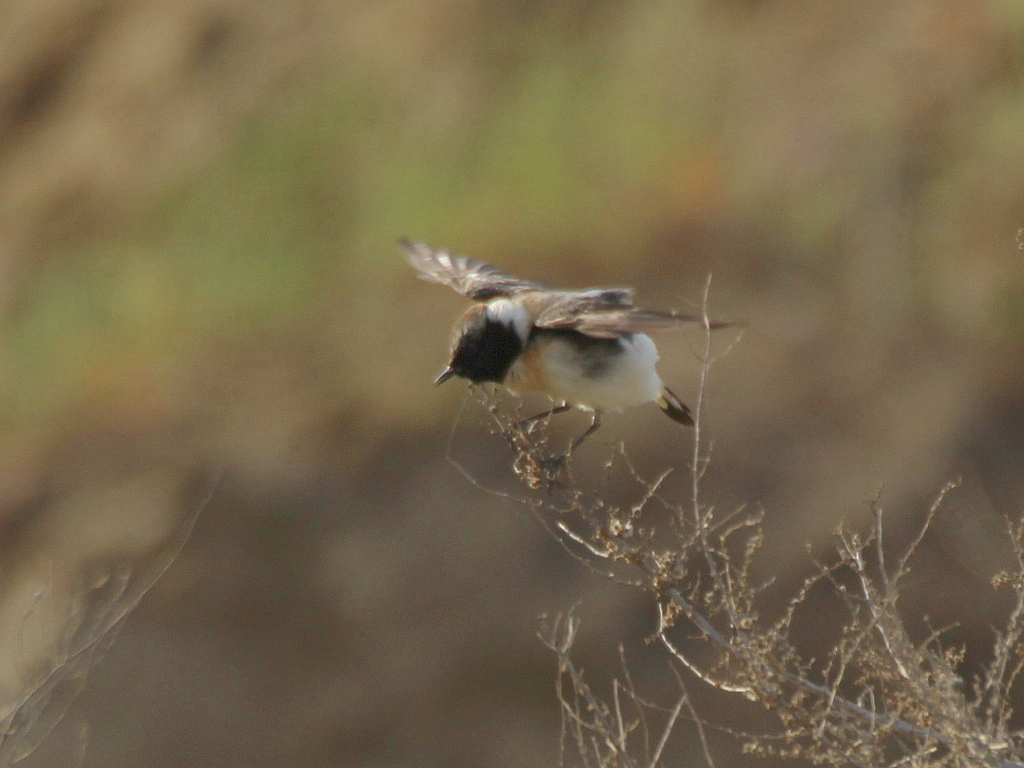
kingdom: Animalia
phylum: Chordata
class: Aves
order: Passeriformes
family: Muscicapidae
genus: Oenanthe
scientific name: Oenanthe hispanica
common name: Black-eared wheatear
